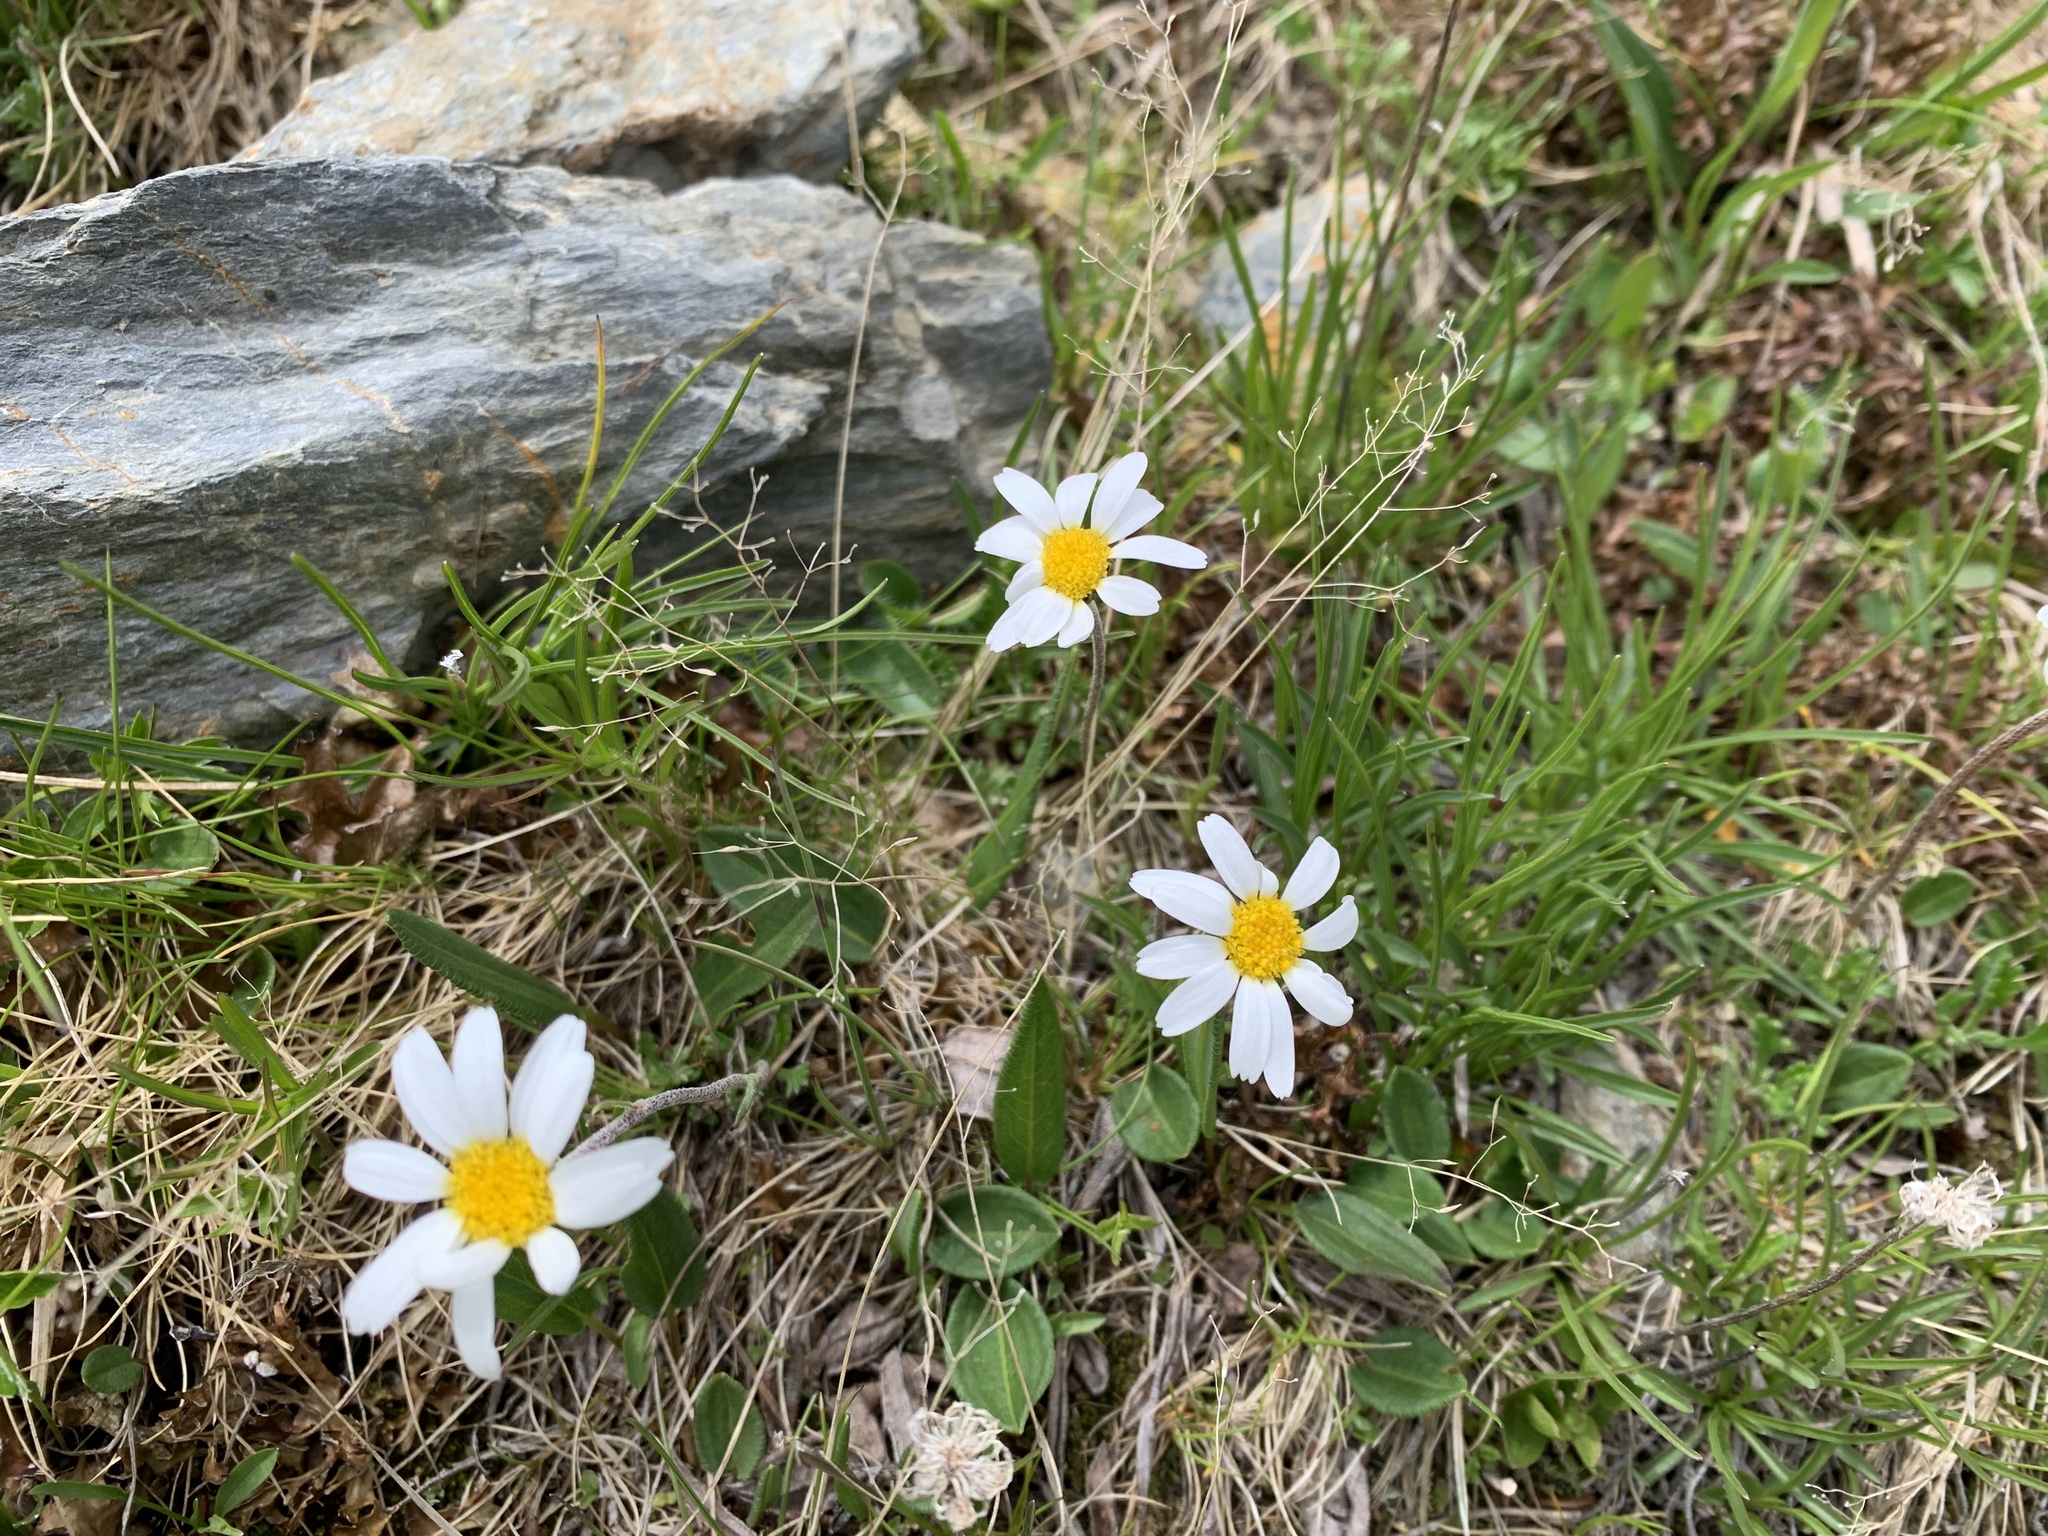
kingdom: Plantae
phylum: Tracheophyta
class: Magnoliopsida
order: Asterales
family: Asteraceae
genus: Leucanthemopsis
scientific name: Leucanthemopsis alpina
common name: Alpine moon daisy
